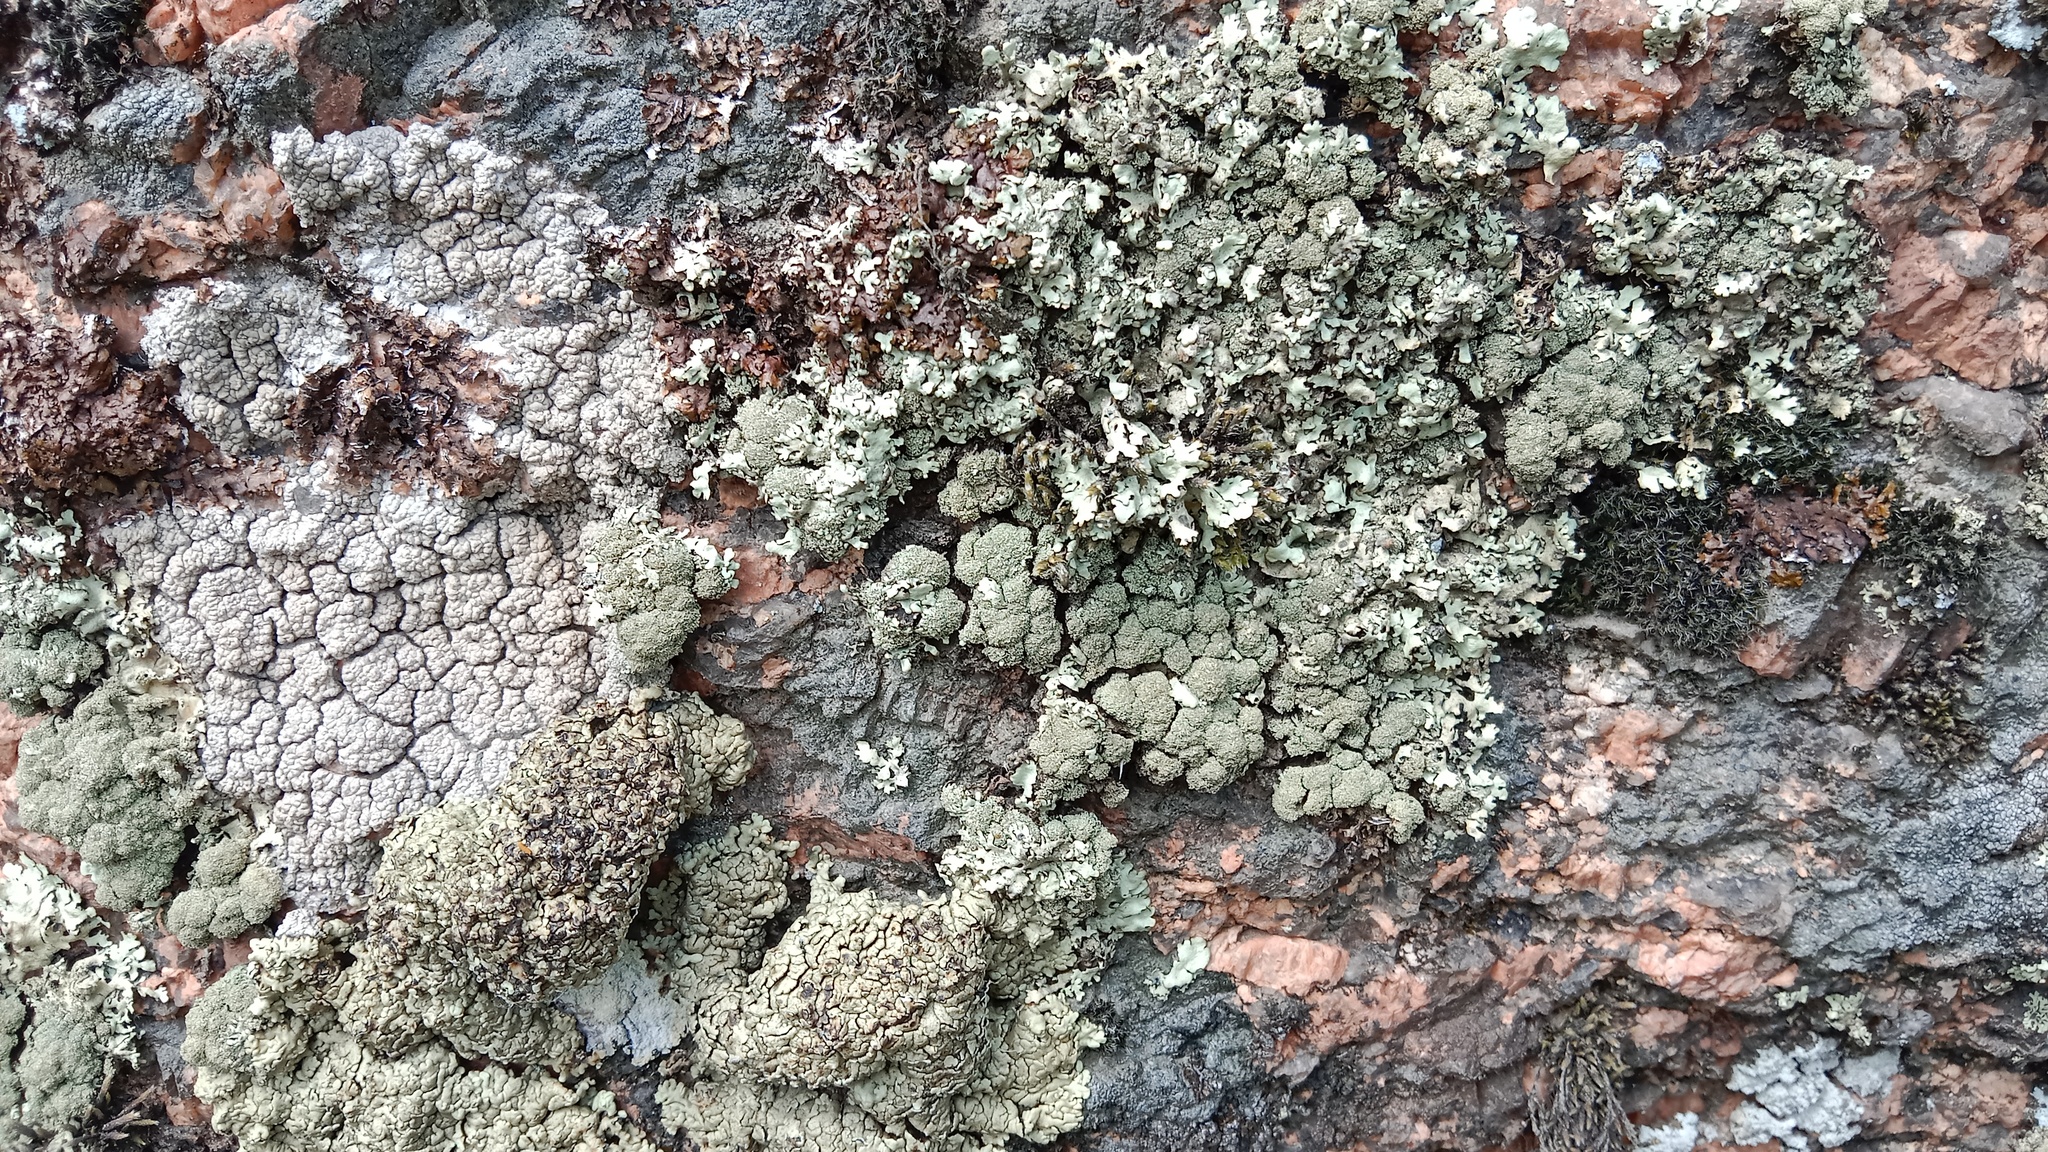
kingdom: Fungi
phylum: Ascomycota
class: Lecanoromycetes
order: Lecanorales
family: Parmeliaceae
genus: Xanthoparmelia
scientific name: Xanthoparmelia conspersa
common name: Peppered rock shield
